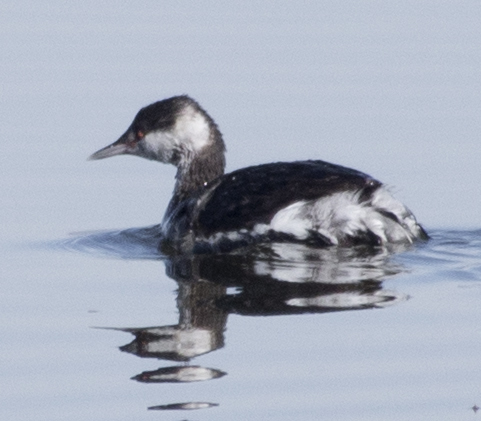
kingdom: Animalia
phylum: Chordata
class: Aves
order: Podicipediformes
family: Podicipedidae
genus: Podiceps
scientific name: Podiceps auritus
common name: Horned grebe
